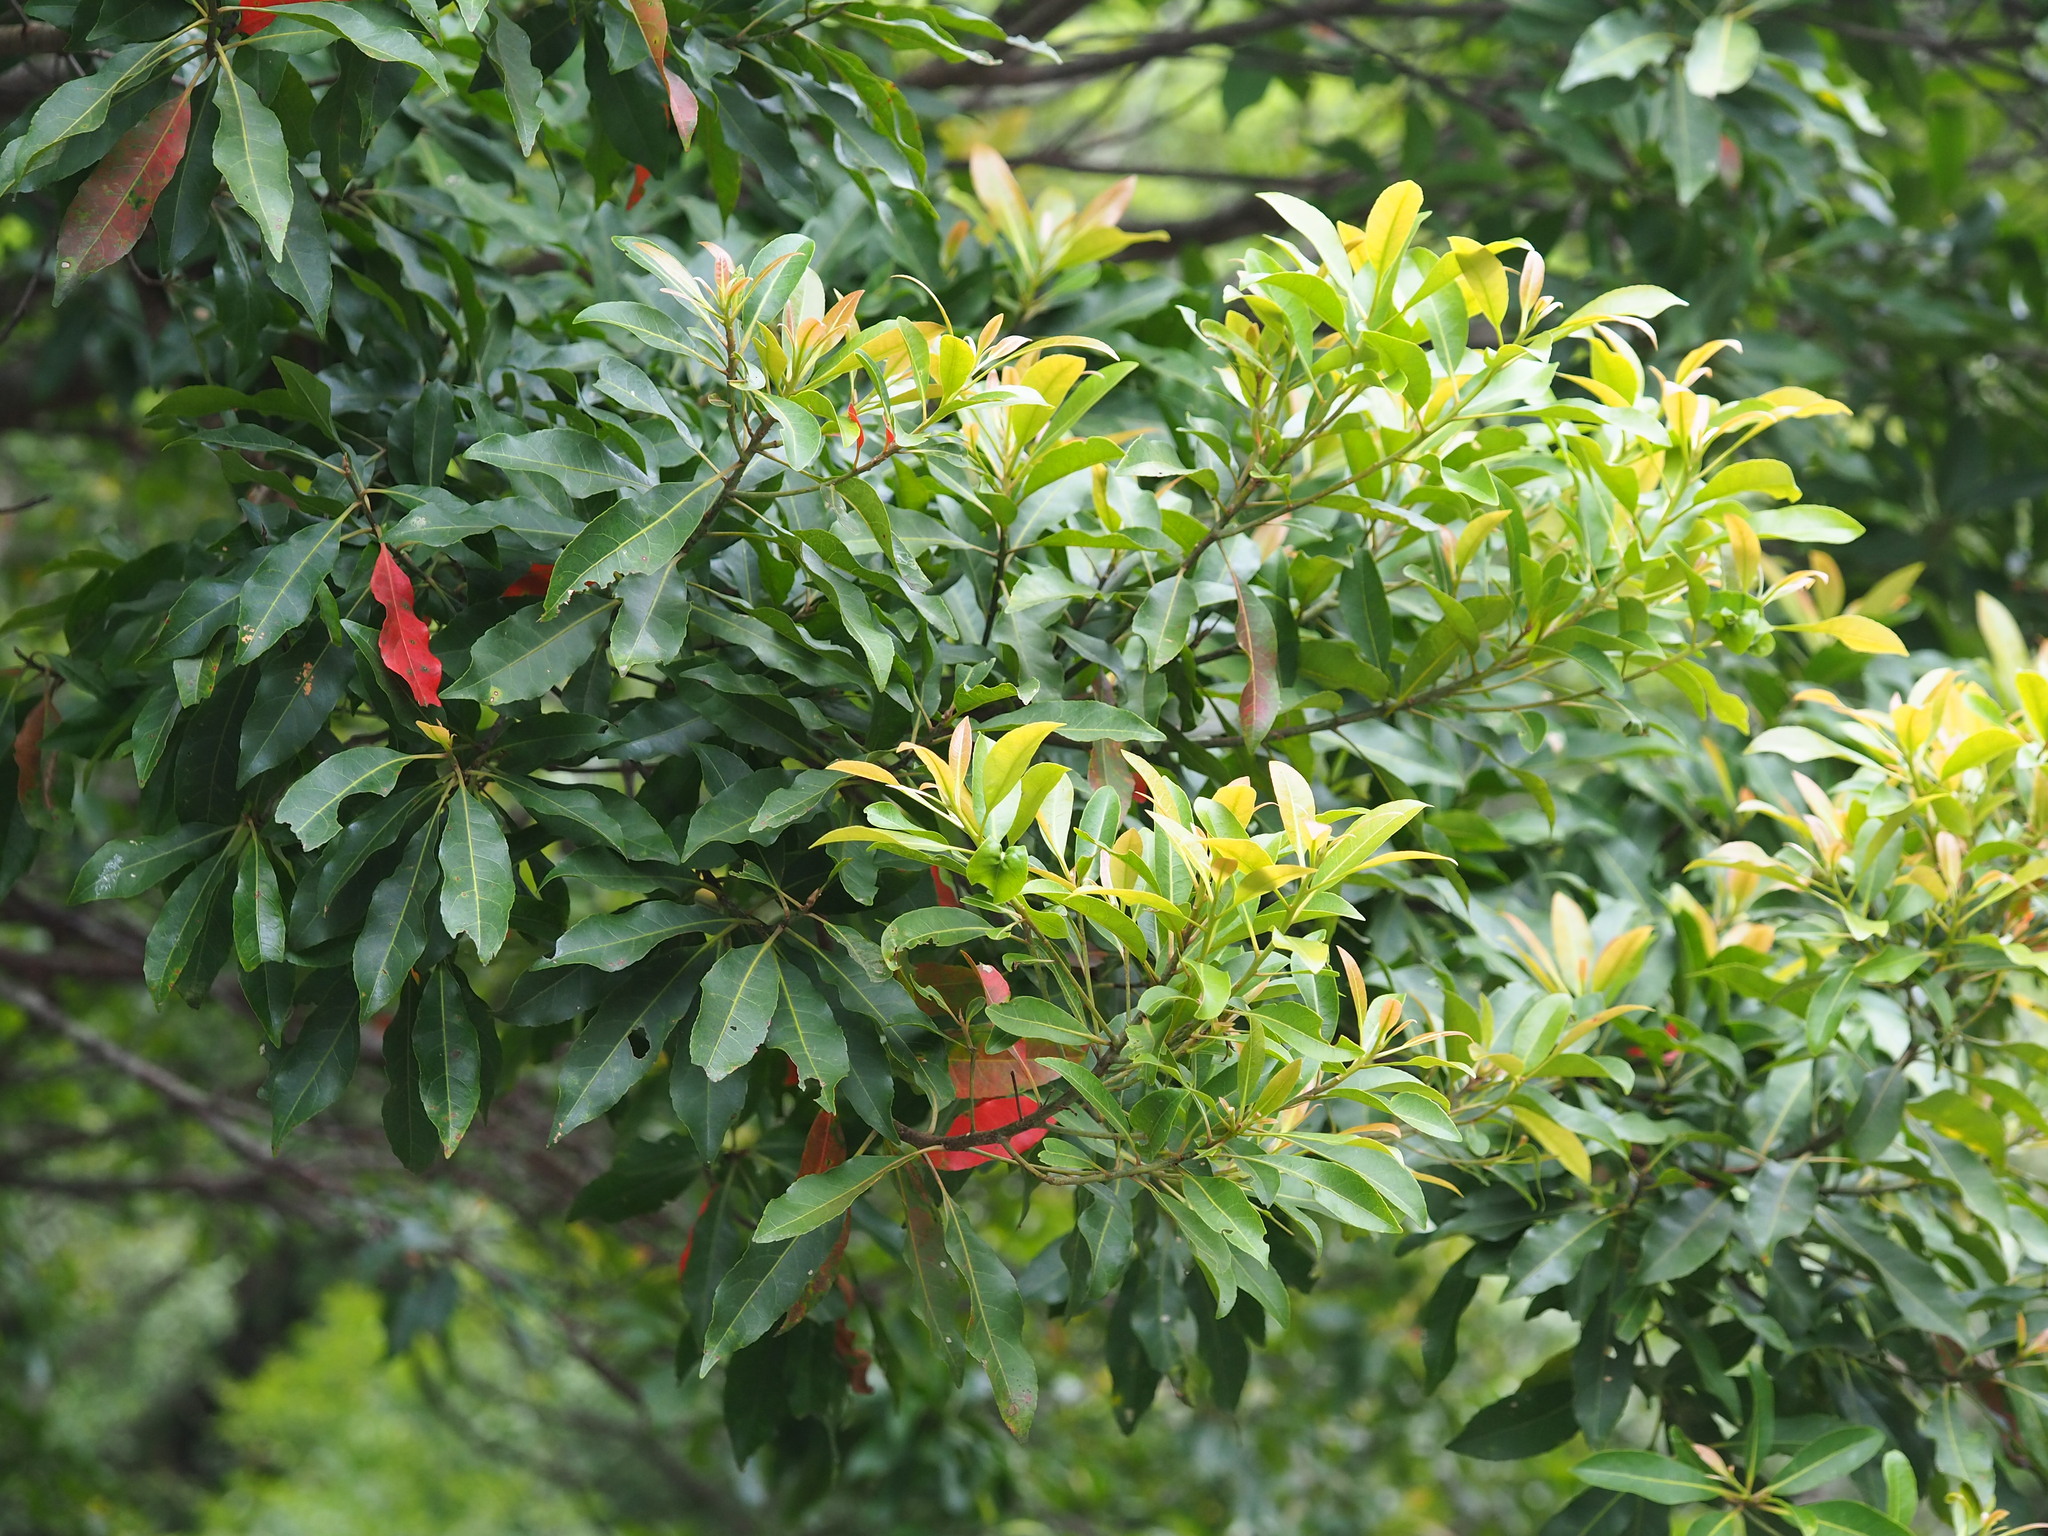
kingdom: Plantae
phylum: Tracheophyta
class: Magnoliopsida
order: Oxalidales
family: Elaeocarpaceae
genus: Elaeocarpus
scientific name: Elaeocarpus decipiens
